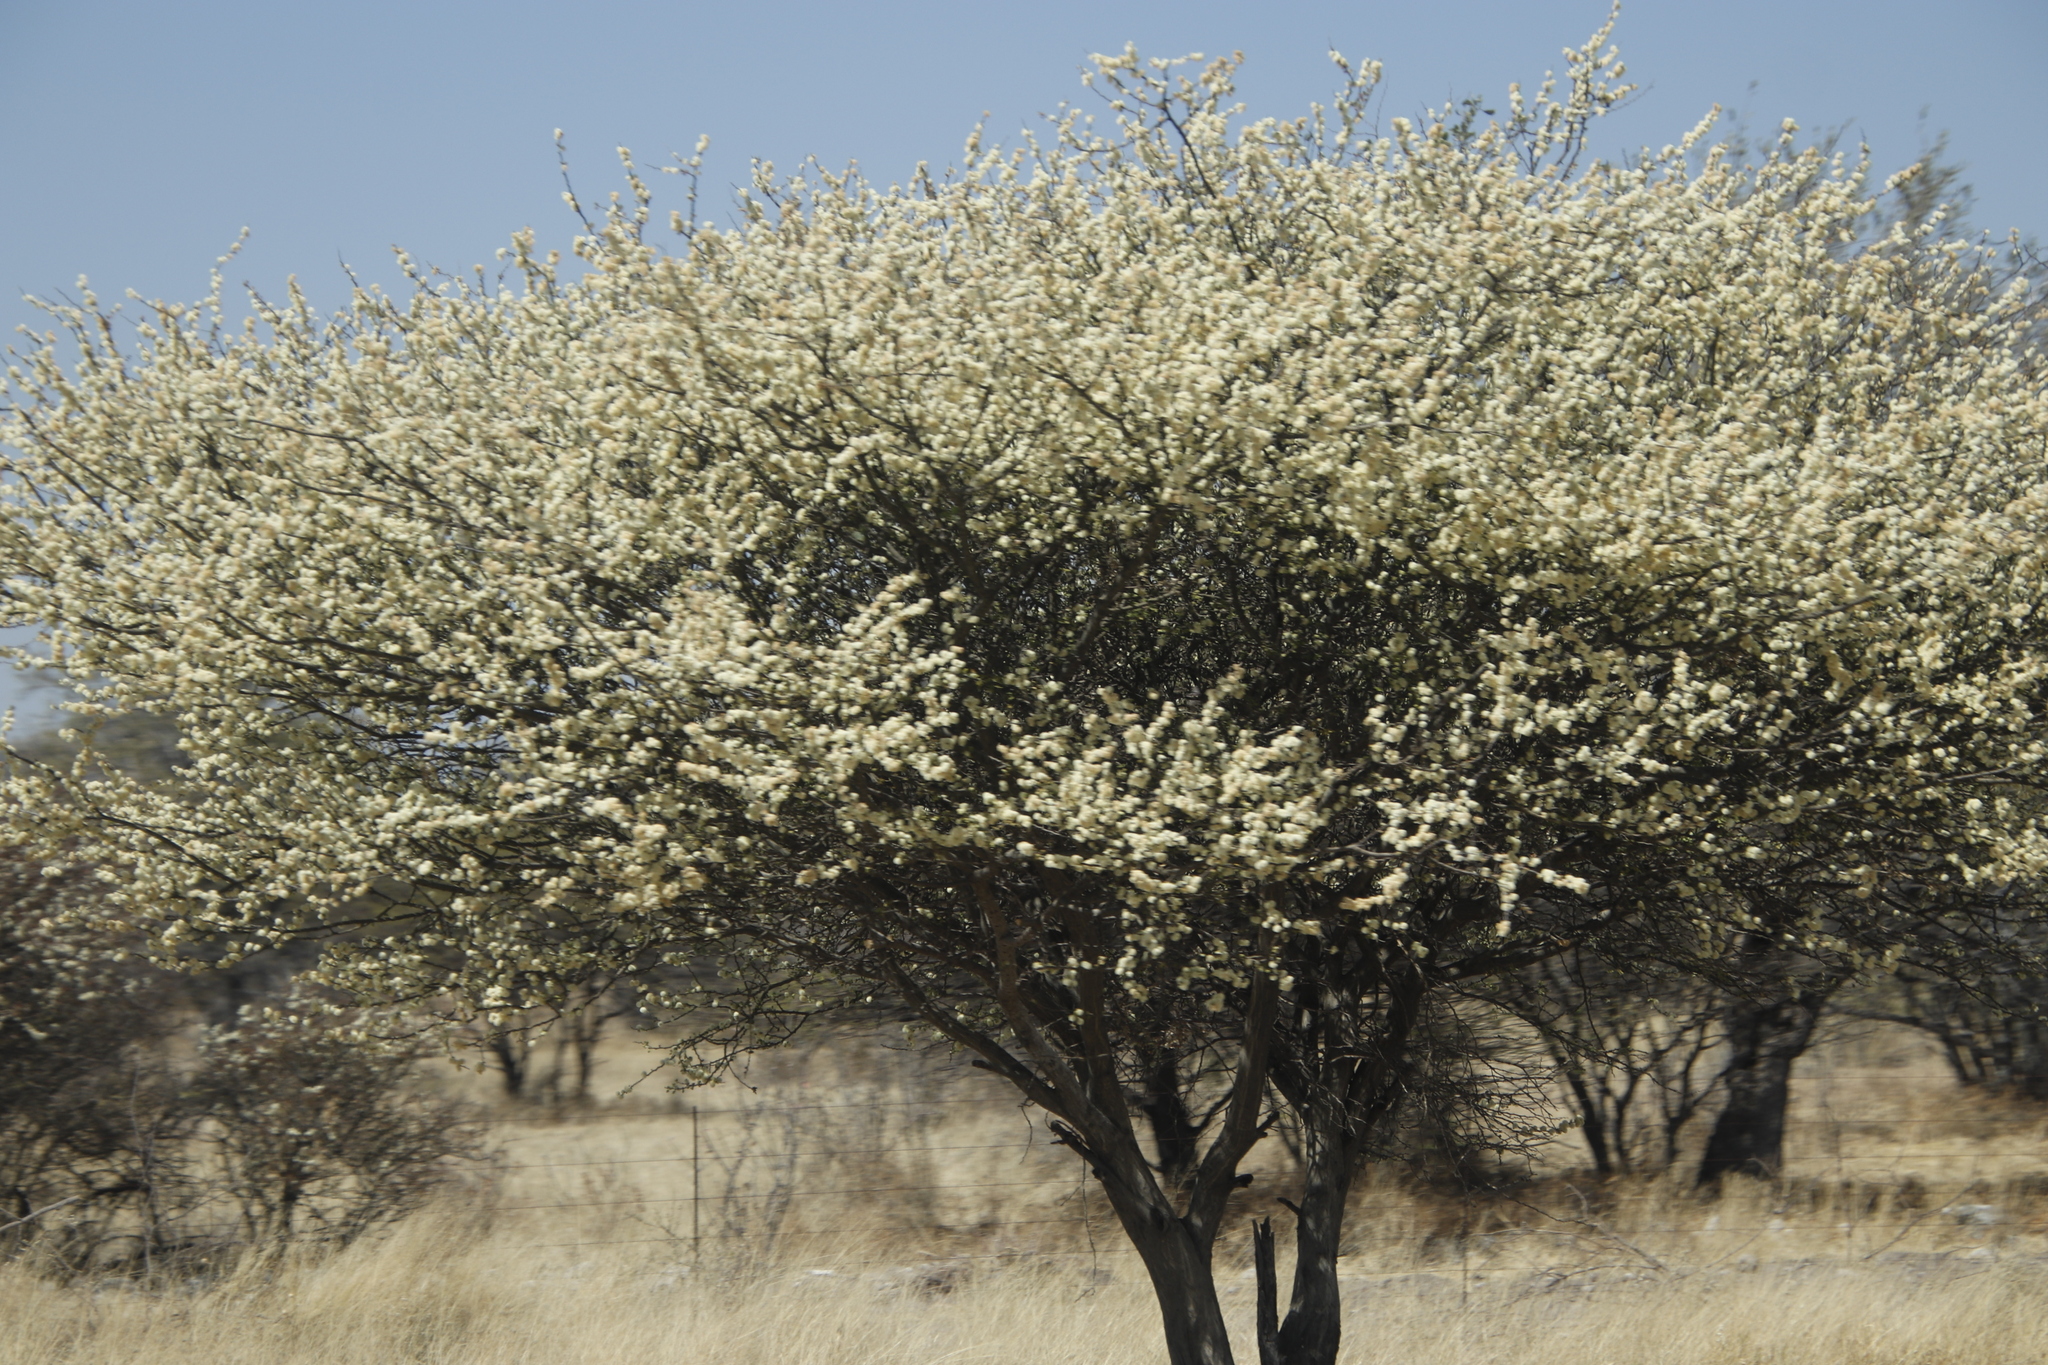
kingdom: Plantae
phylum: Tracheophyta
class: Magnoliopsida
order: Fabales
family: Fabaceae
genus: Senegalia
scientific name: Senegalia mellifera
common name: Hookthorn
